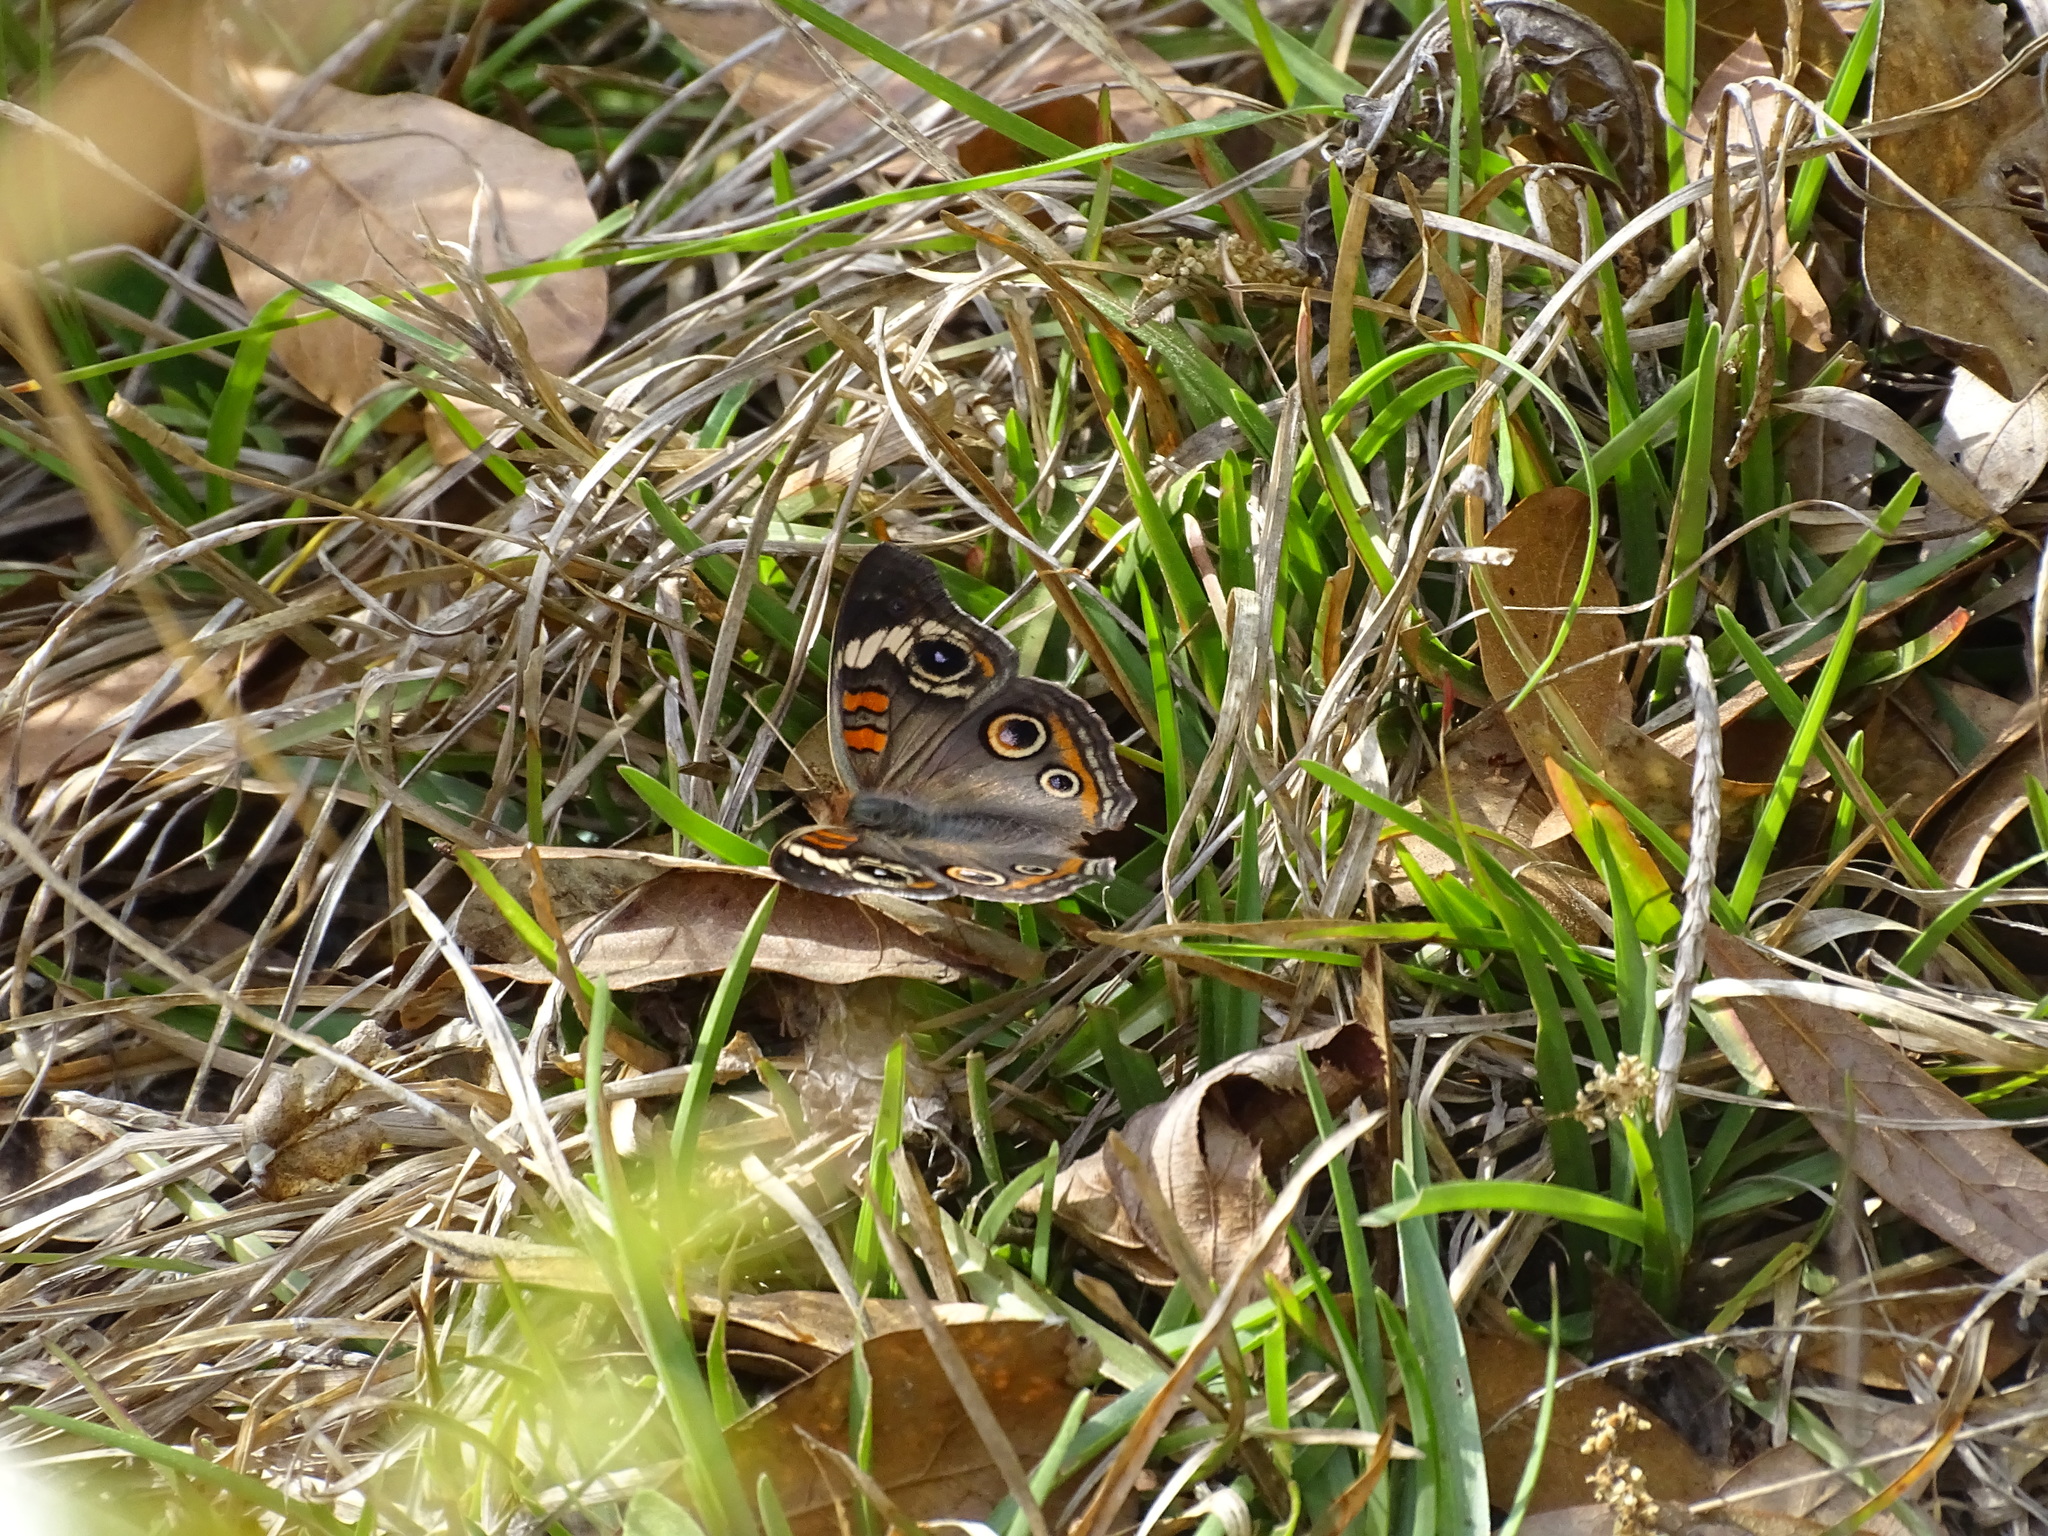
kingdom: Animalia
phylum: Arthropoda
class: Insecta
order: Lepidoptera
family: Nymphalidae
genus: Junonia
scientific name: Junonia coenia
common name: Common buckeye
